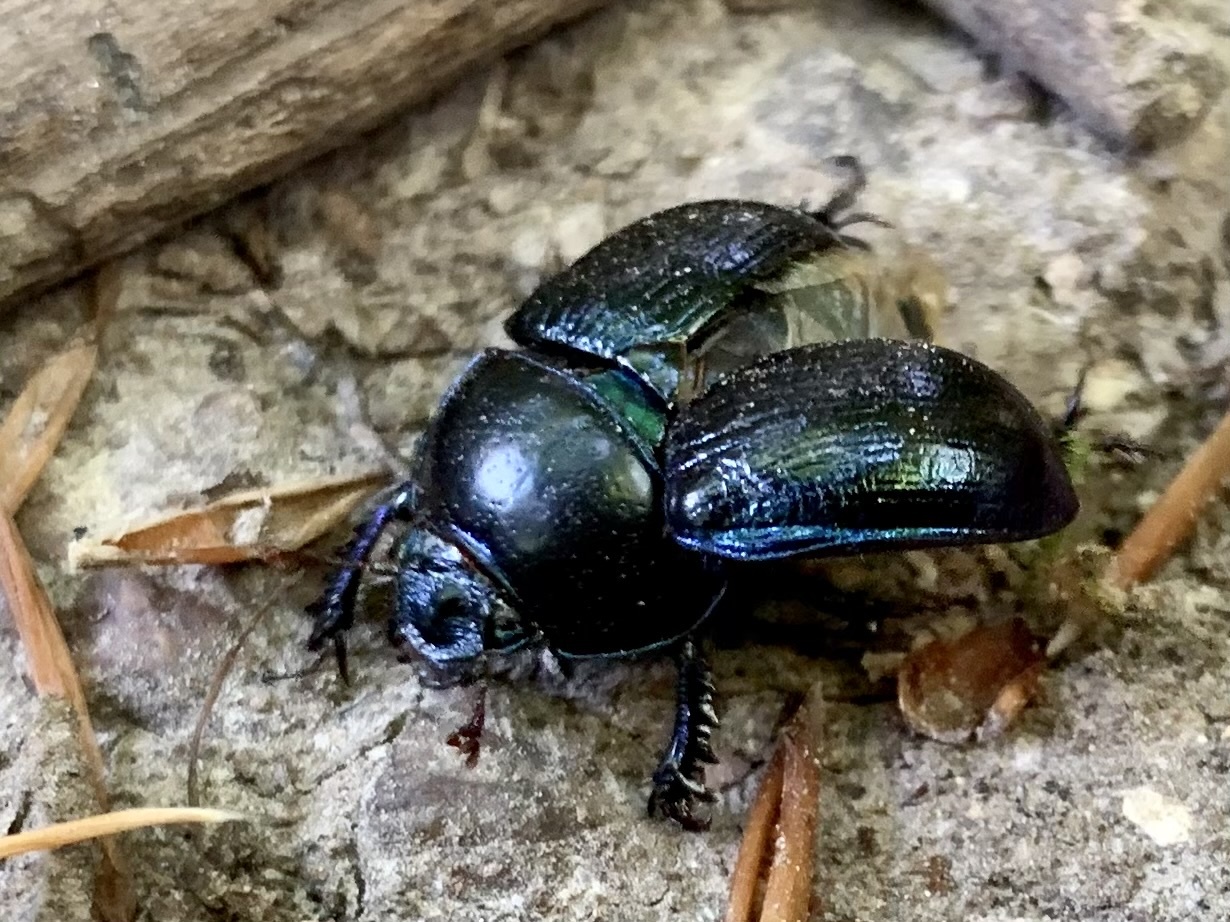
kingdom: Animalia
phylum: Arthropoda
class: Insecta
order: Coleoptera
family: Geotrupidae
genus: Anoplotrupes
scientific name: Anoplotrupes stercorosus
